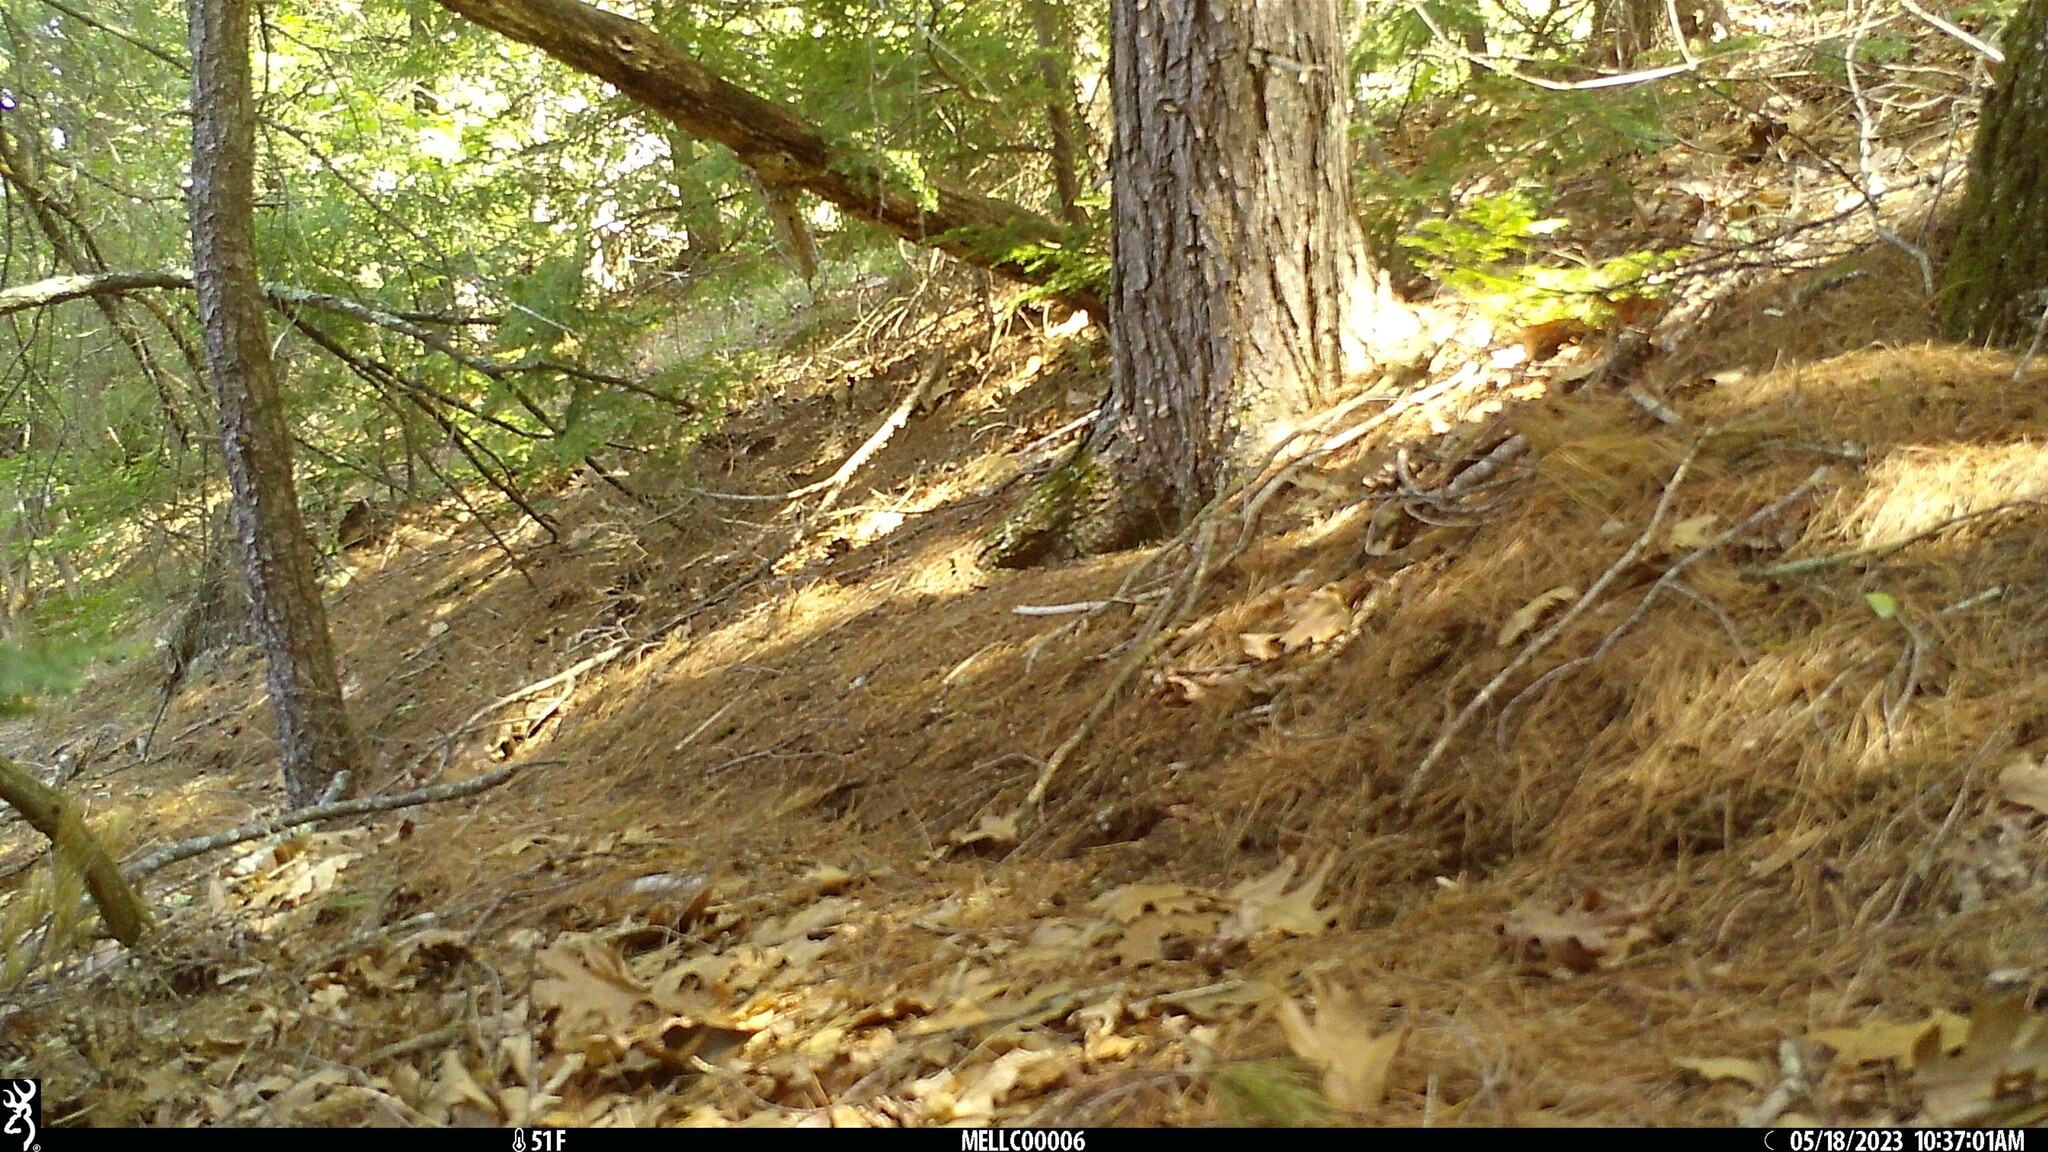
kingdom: Animalia
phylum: Chordata
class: Mammalia
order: Artiodactyla
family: Cervidae
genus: Odocoileus
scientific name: Odocoileus virginianus
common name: White-tailed deer
